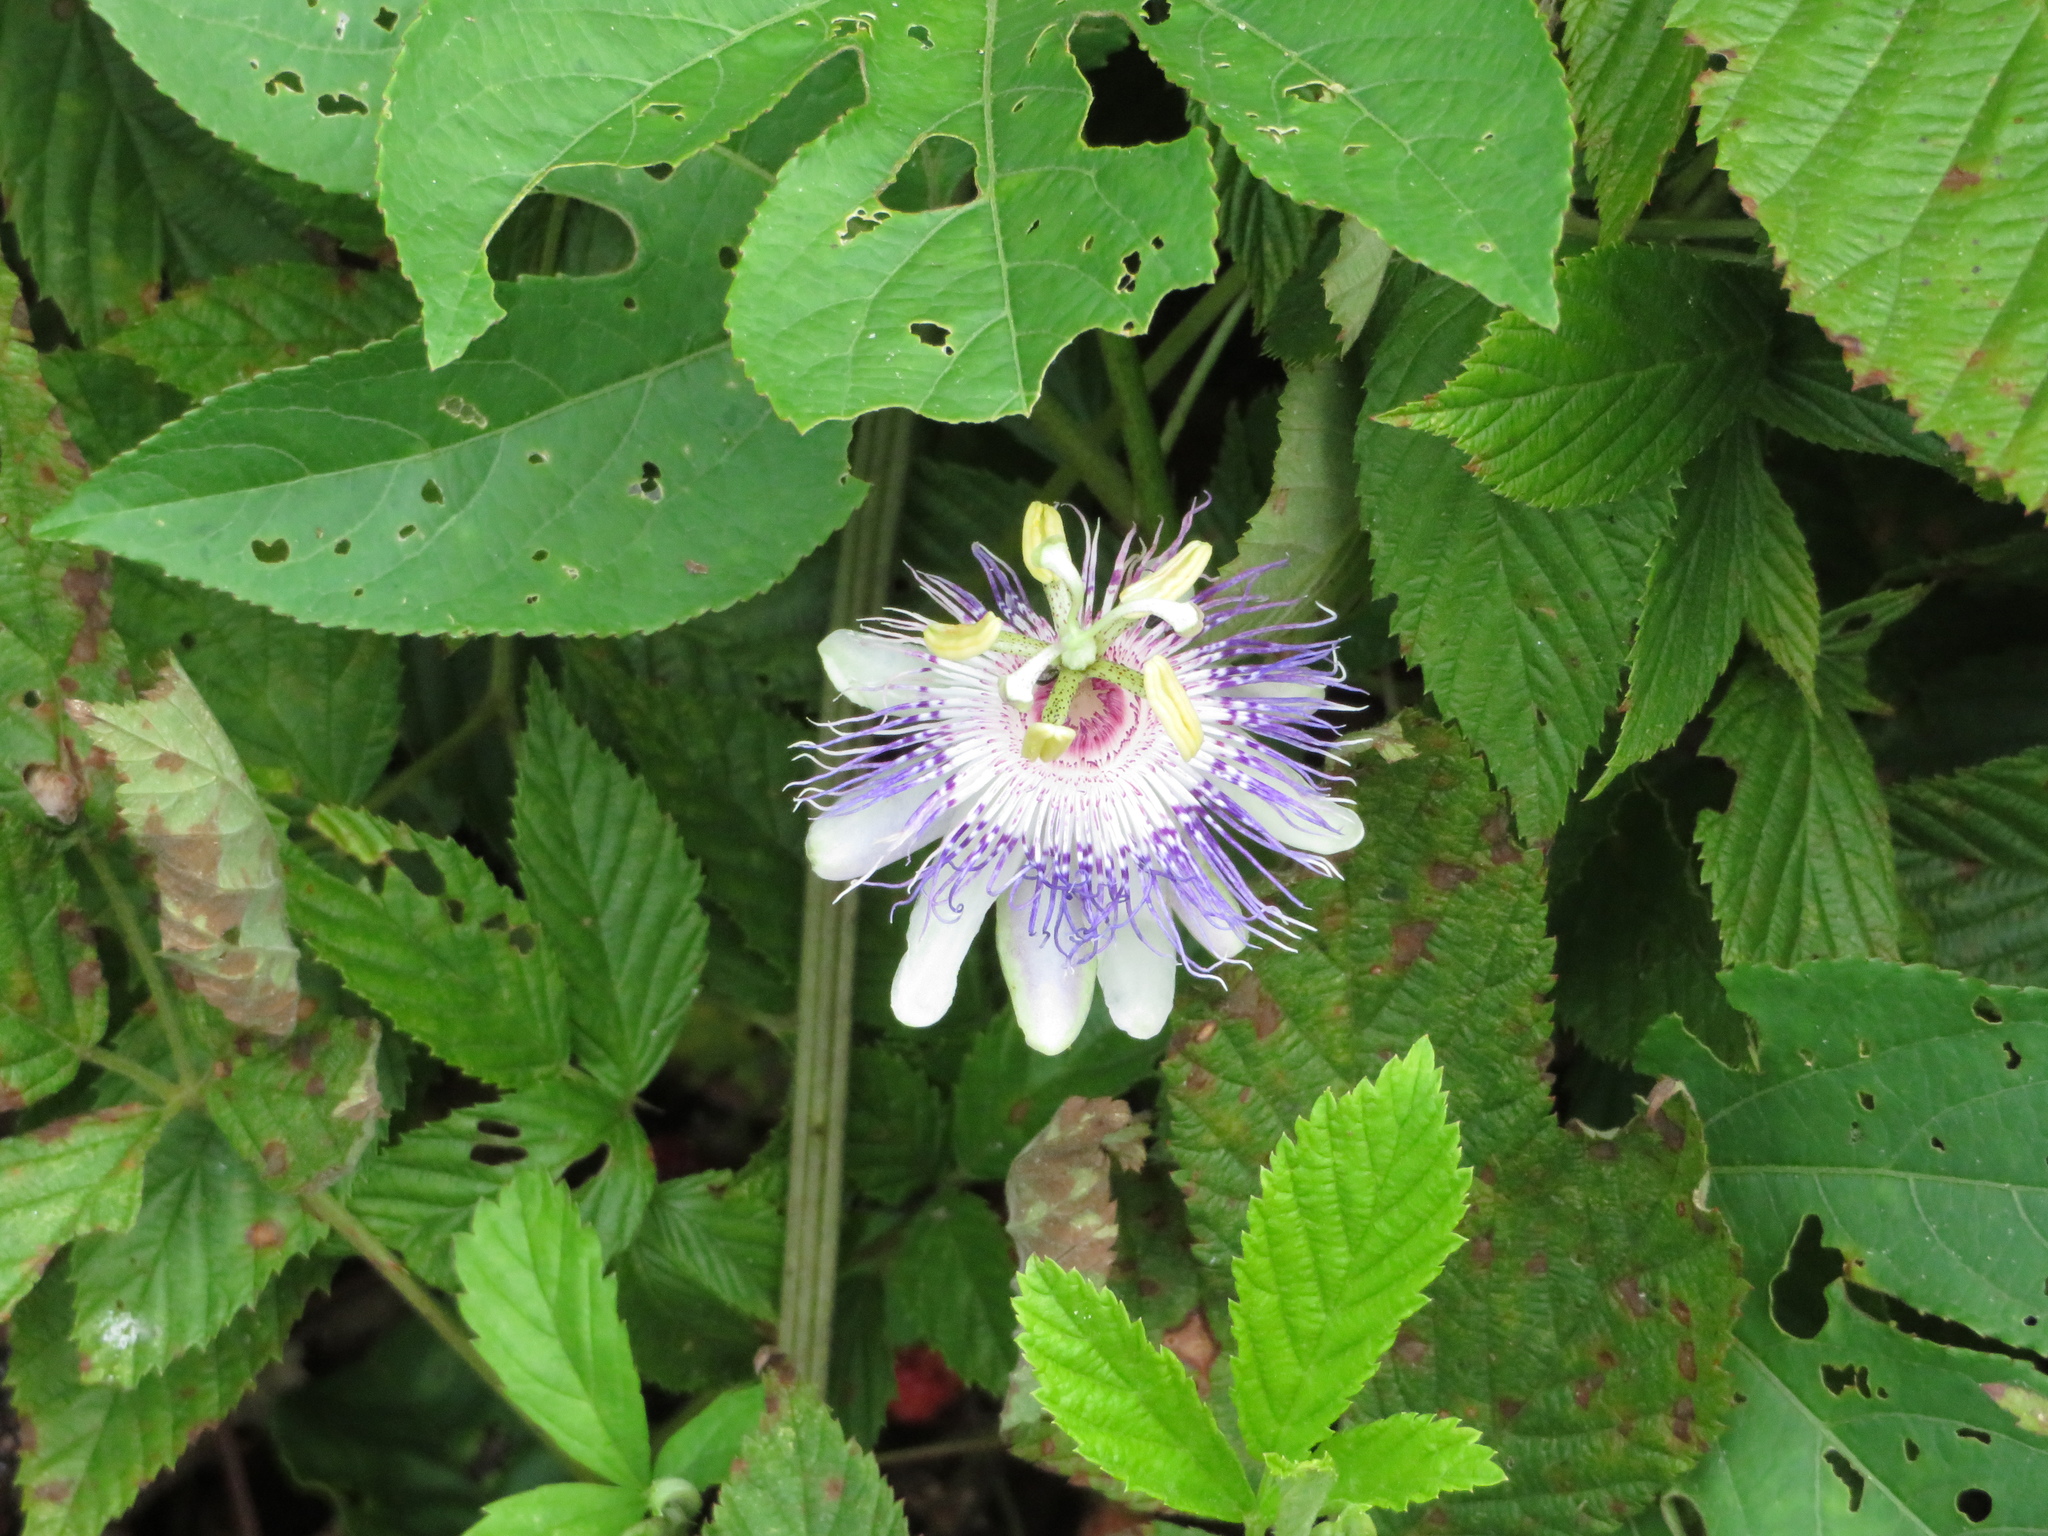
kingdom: Plantae
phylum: Tracheophyta
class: Magnoliopsida
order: Malpighiales
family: Passifloraceae
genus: Passiflora
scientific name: Passiflora incarnata
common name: Apricot-vine
